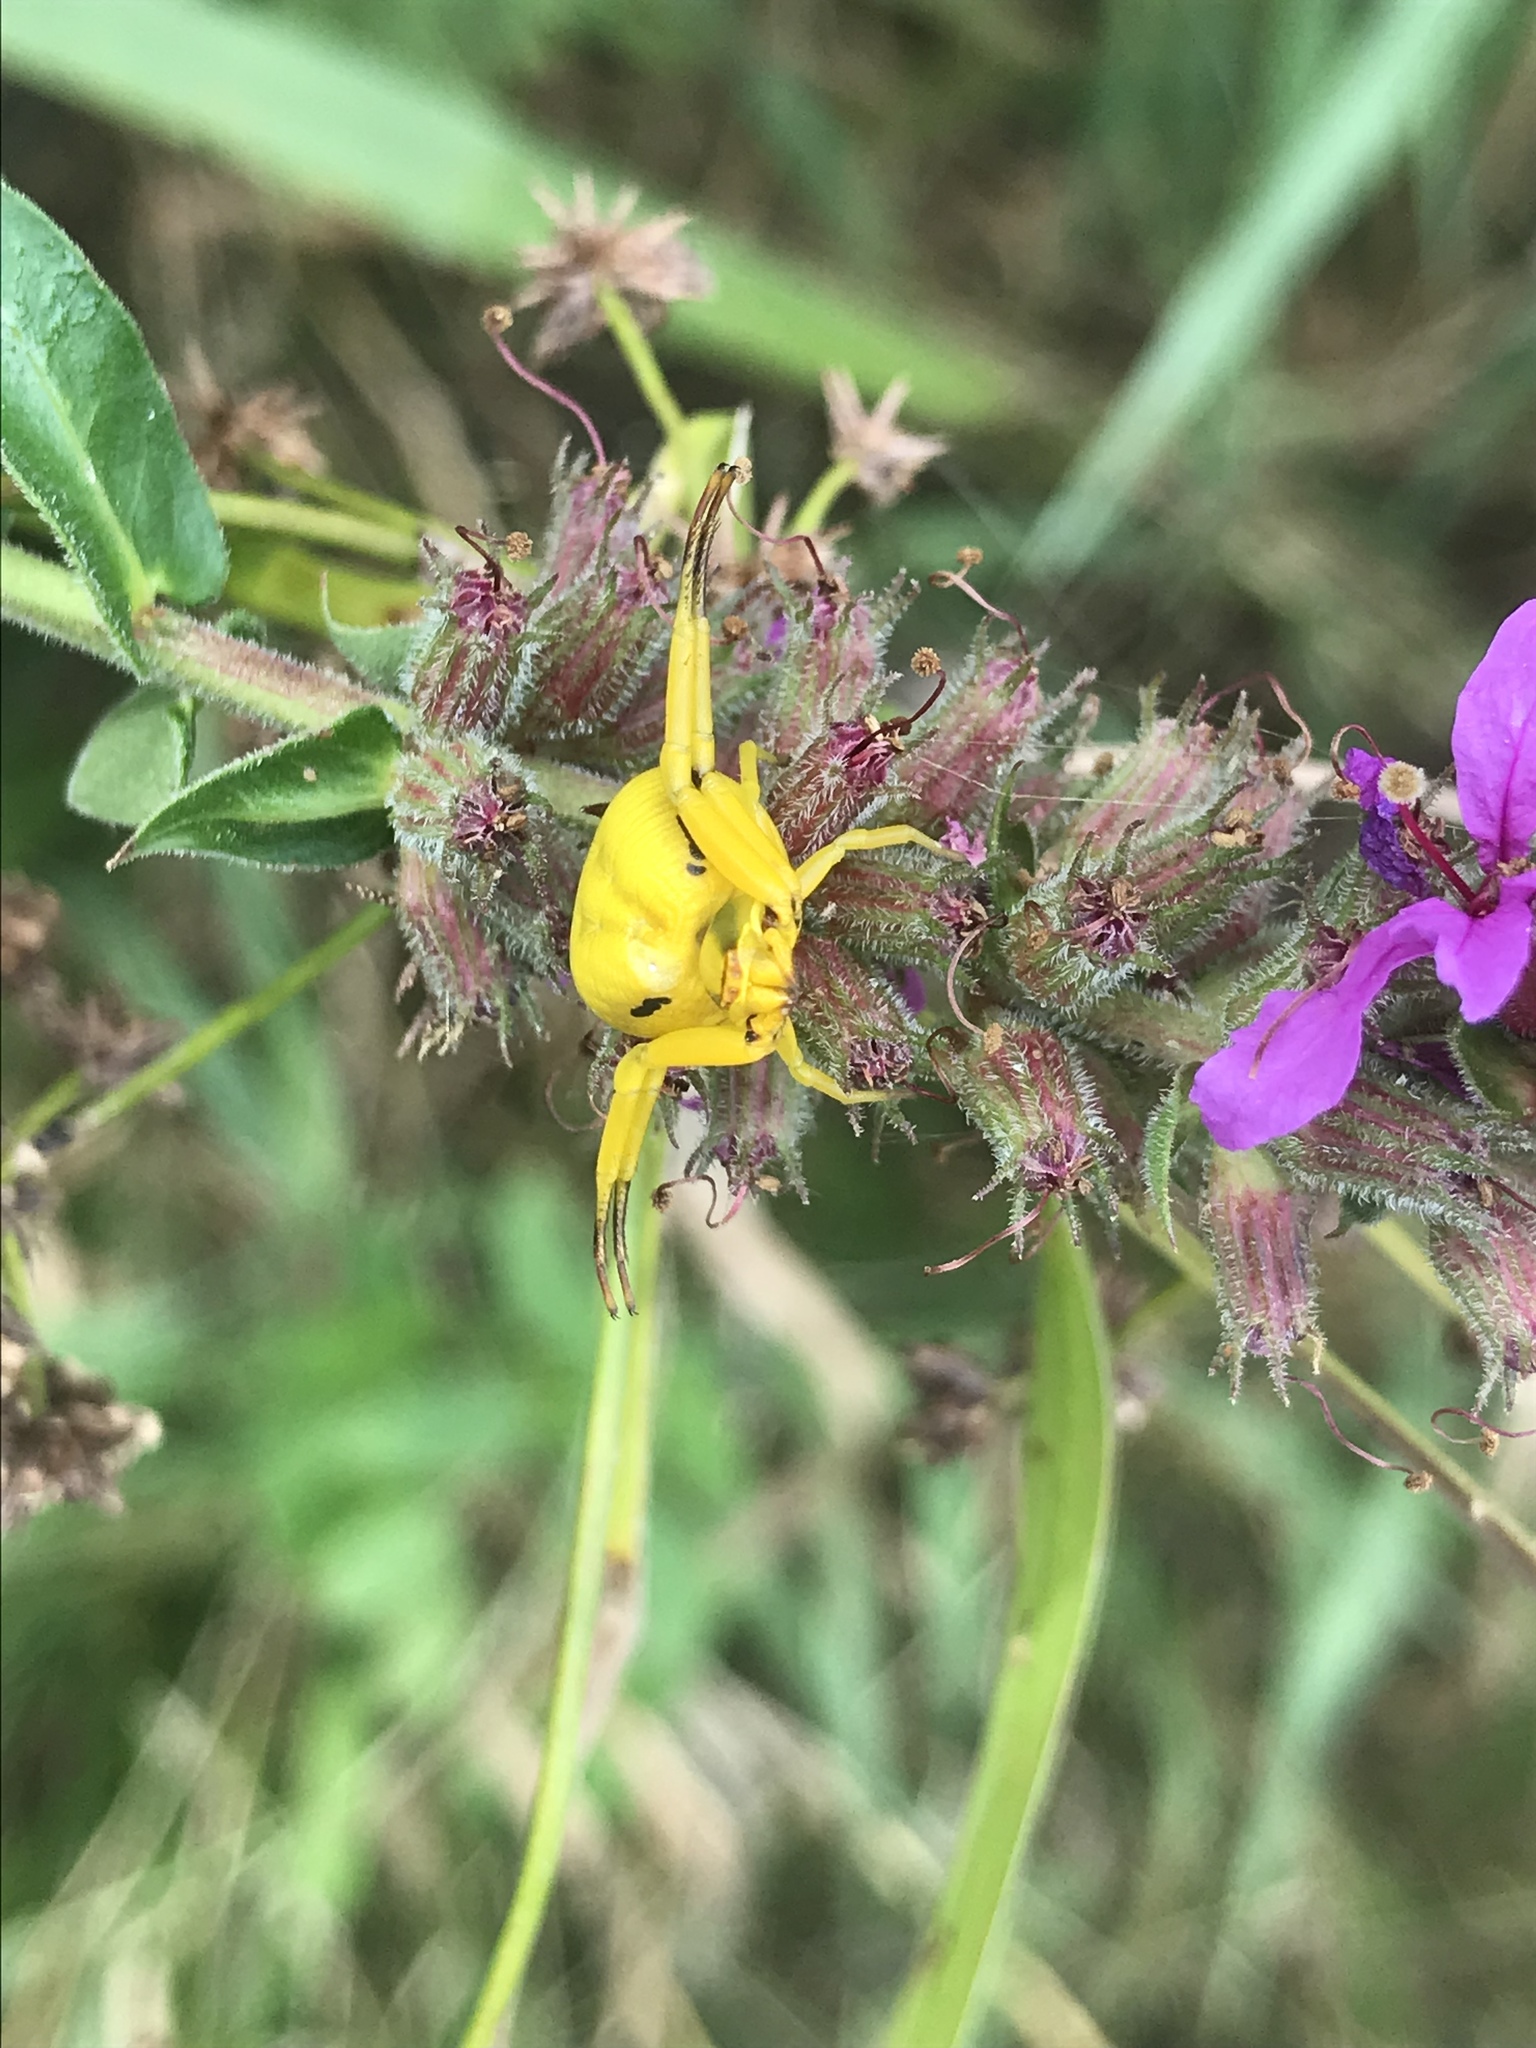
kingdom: Animalia
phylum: Arthropoda
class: Arachnida
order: Araneae
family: Thomisidae
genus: Misumenoides
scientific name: Misumenoides formosipes
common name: White-banded crab spider
